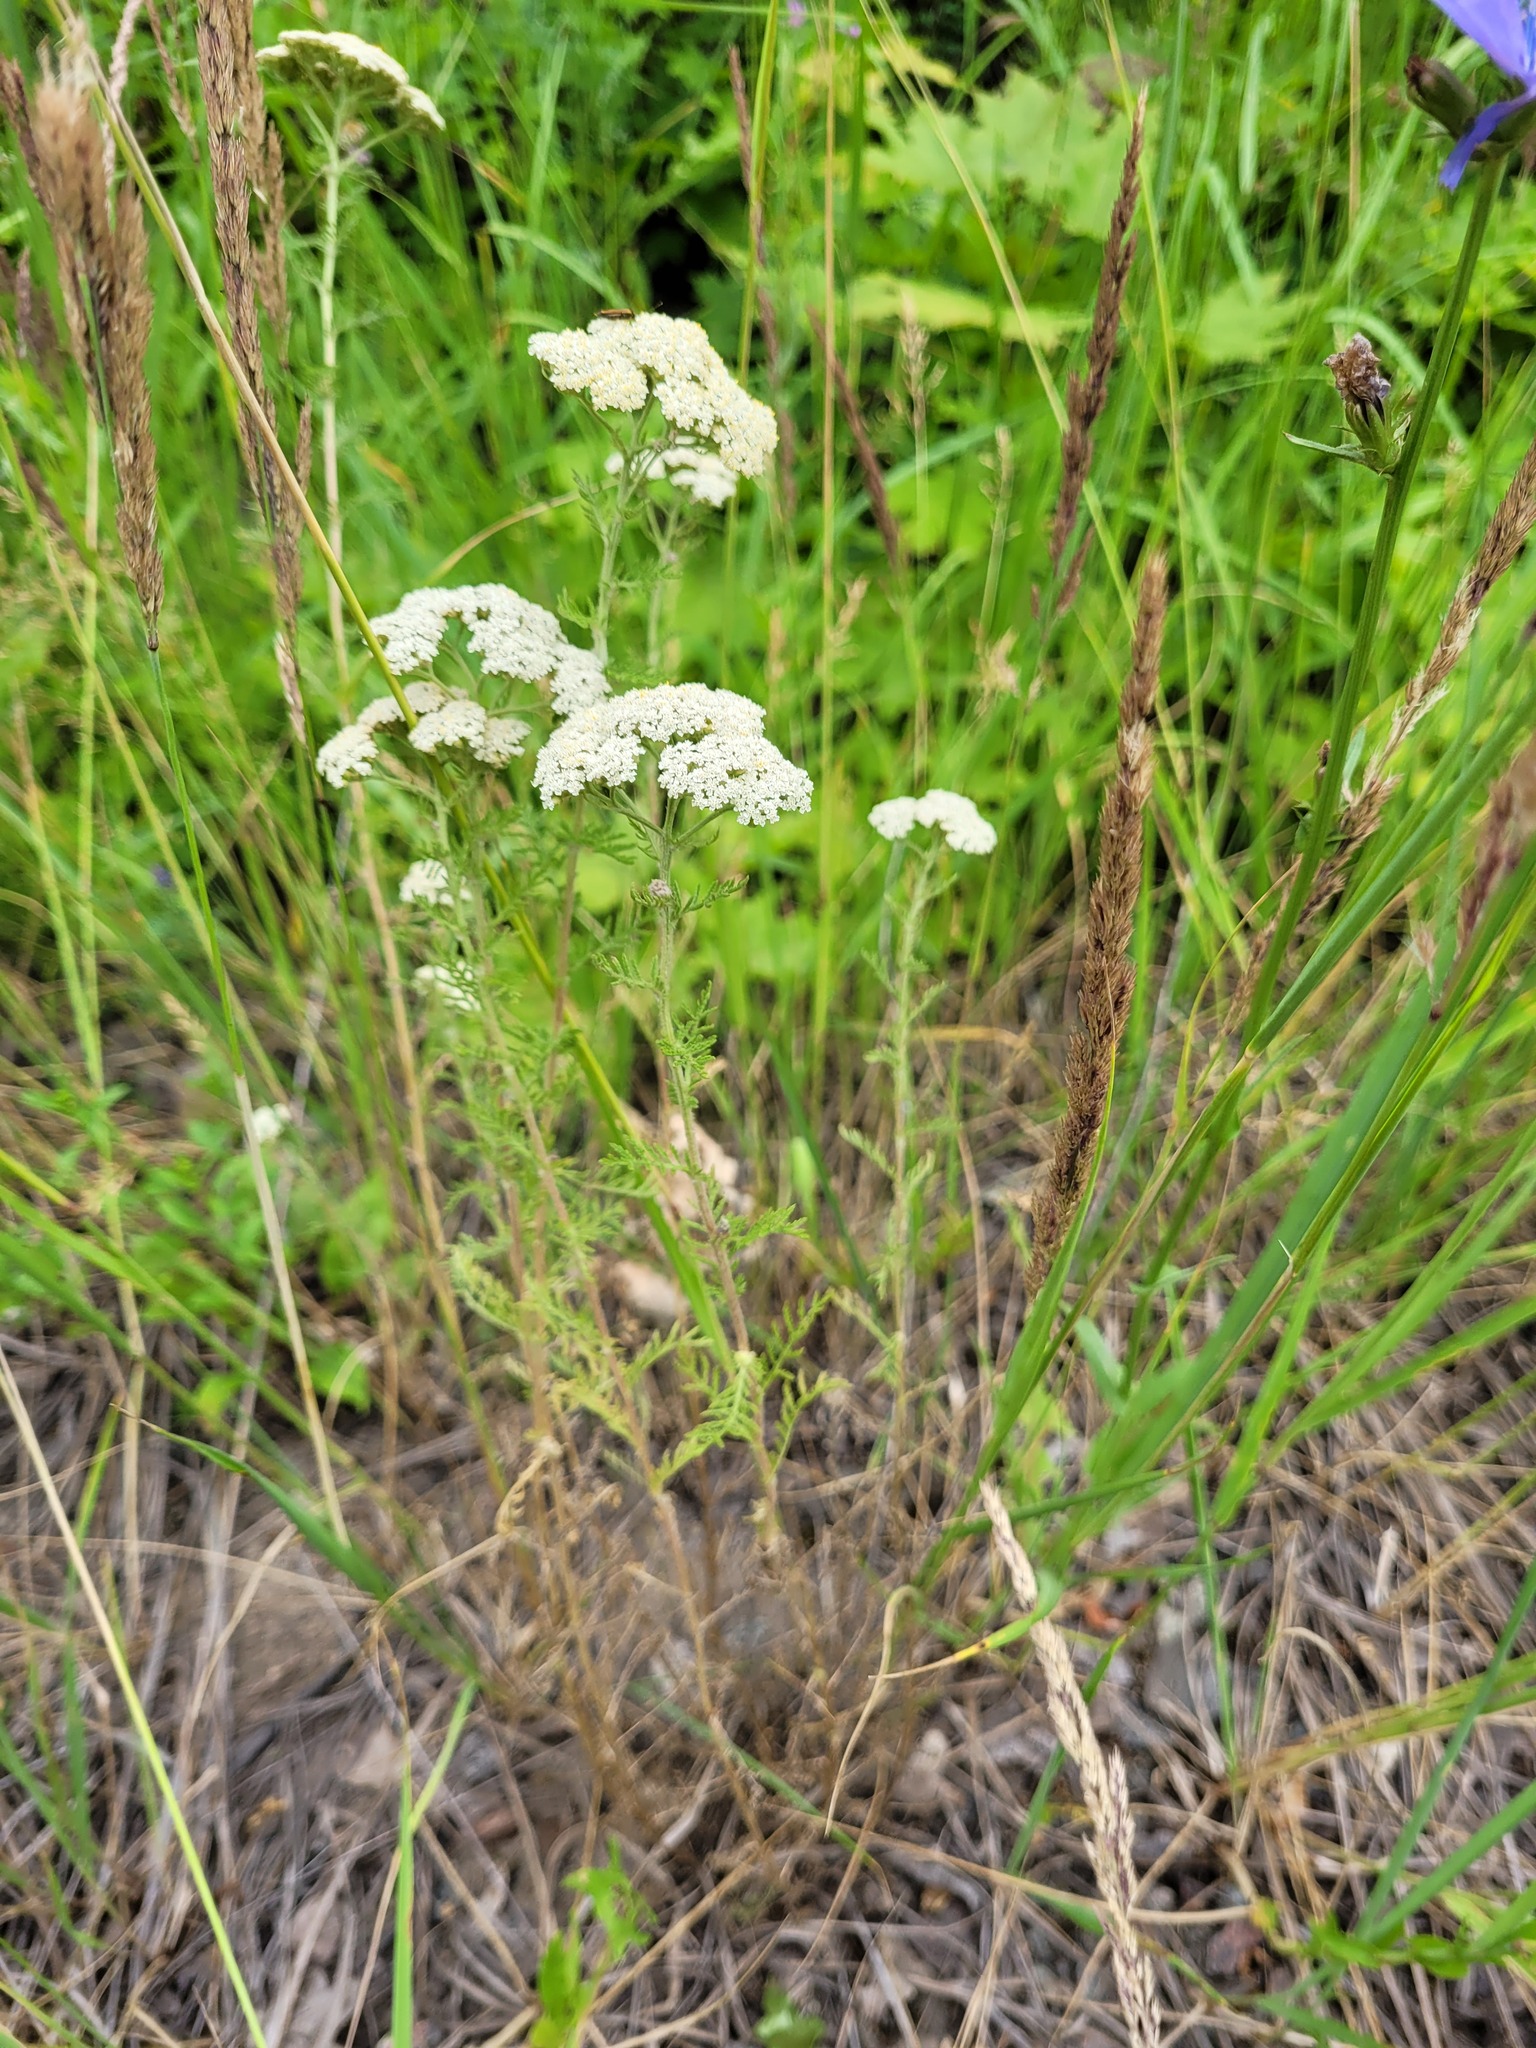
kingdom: Plantae
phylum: Tracheophyta
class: Magnoliopsida
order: Asterales
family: Asteraceae
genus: Achillea
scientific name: Achillea nobilis
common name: Noble yarrow
